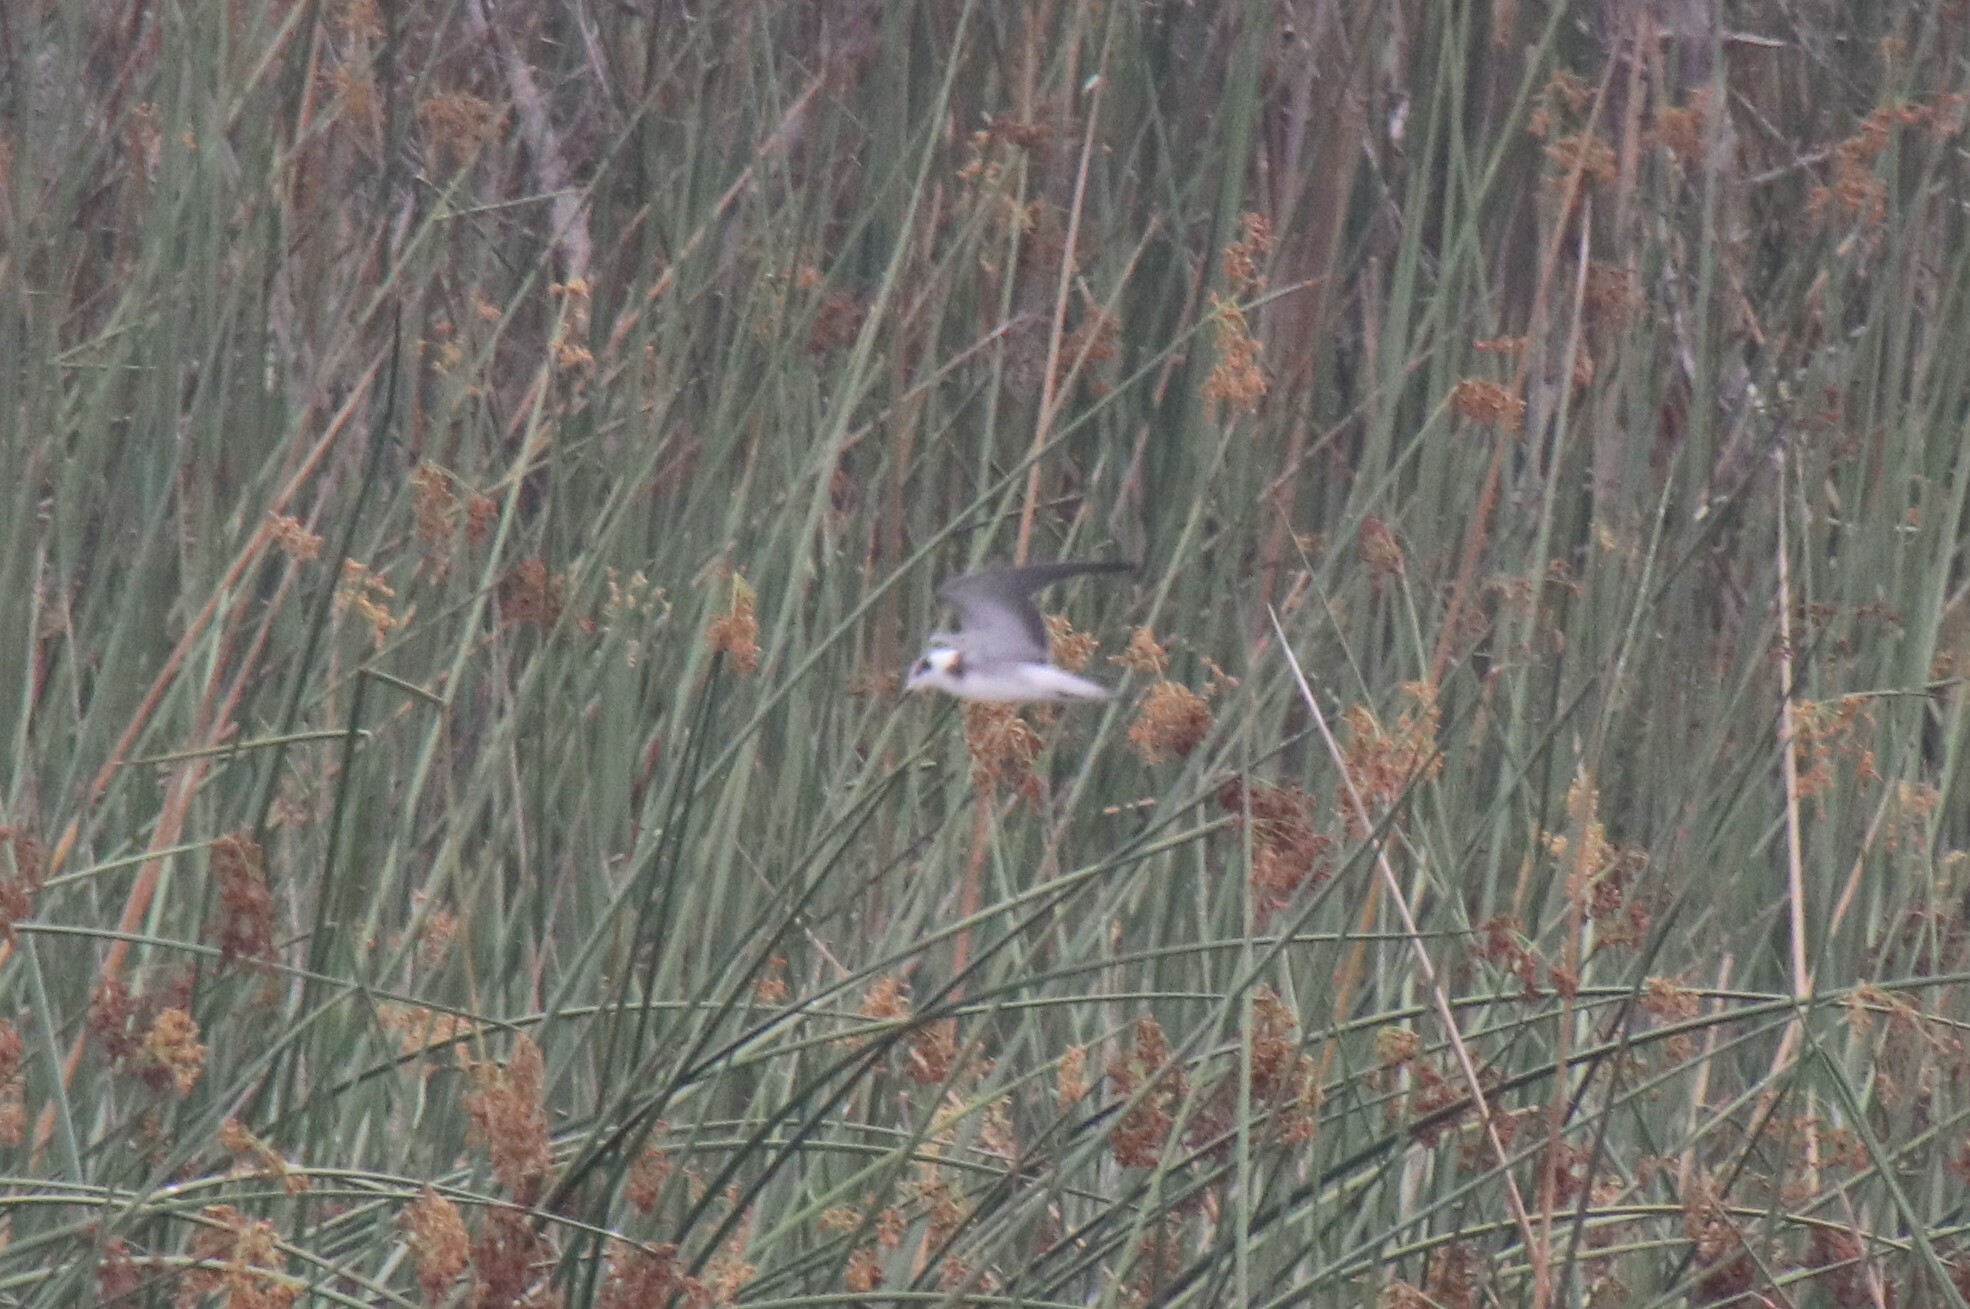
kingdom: Animalia
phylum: Chordata
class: Aves
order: Charadriiformes
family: Laridae
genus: Chlidonias
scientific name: Chlidonias niger
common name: Black tern
